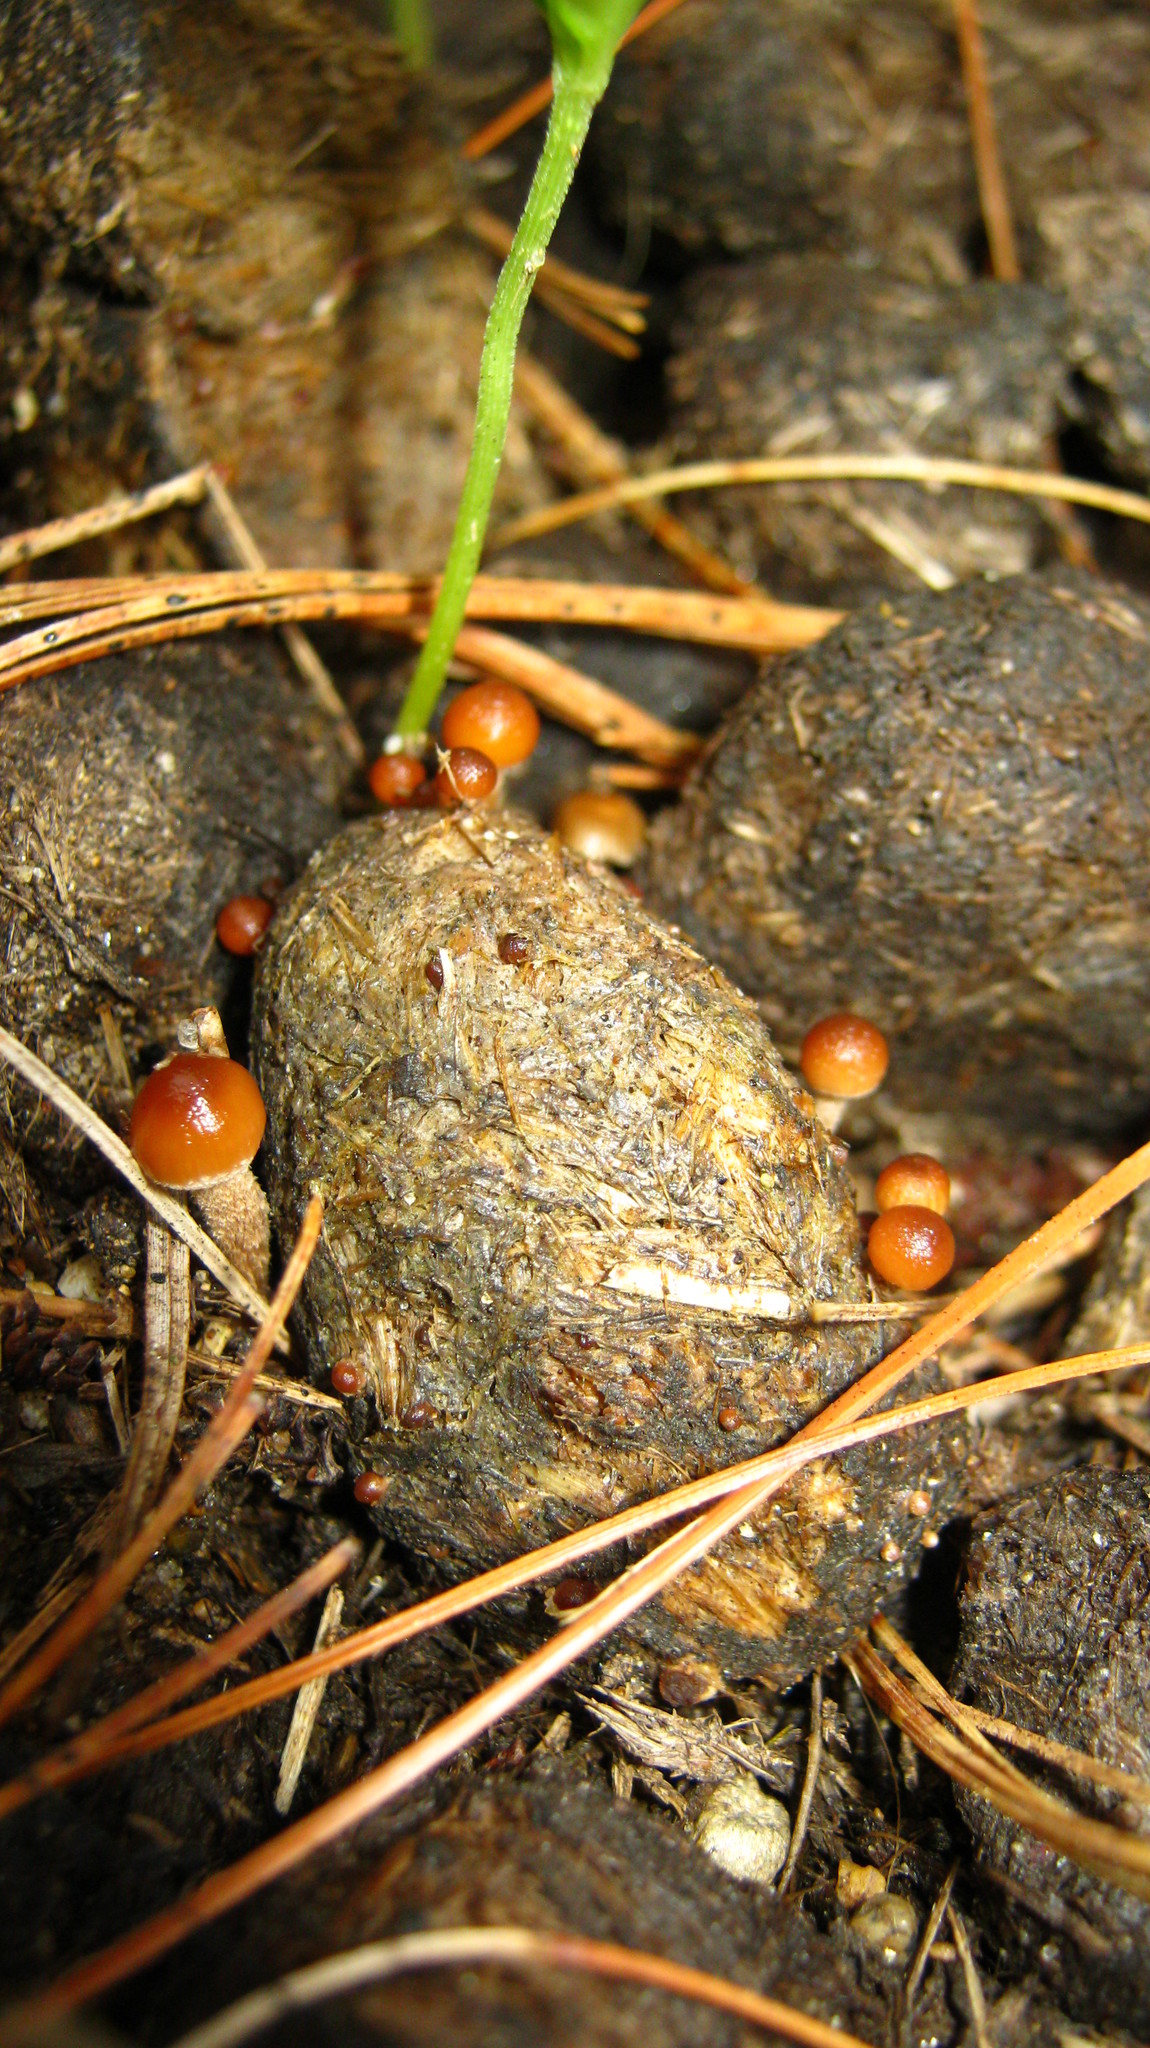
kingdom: Fungi
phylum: Basidiomycota
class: Agaricomycetes
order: Agaricales
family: Strophariaceae
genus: Deconica
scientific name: Deconica coprophila
